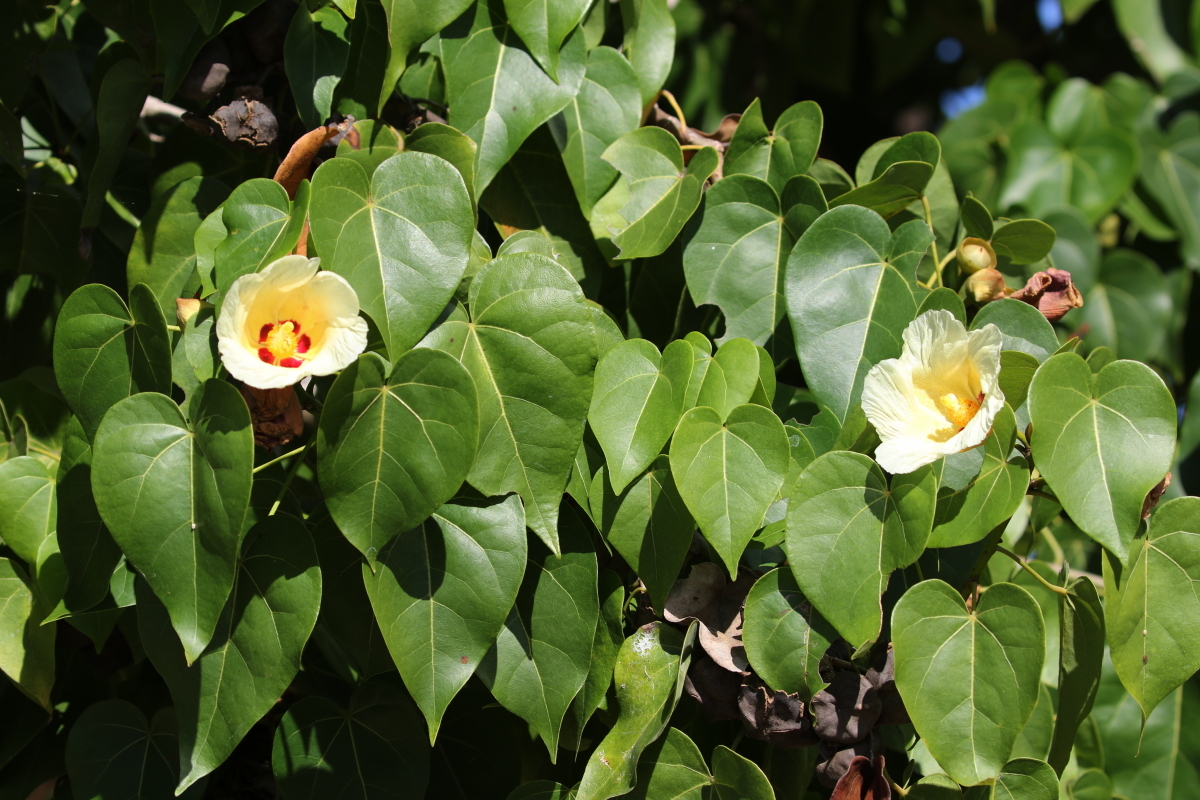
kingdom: Plantae
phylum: Tracheophyta
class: Magnoliopsida
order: Malvales
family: Malvaceae
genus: Thespesia
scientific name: Thespesia populnea
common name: Seaside mahoe
